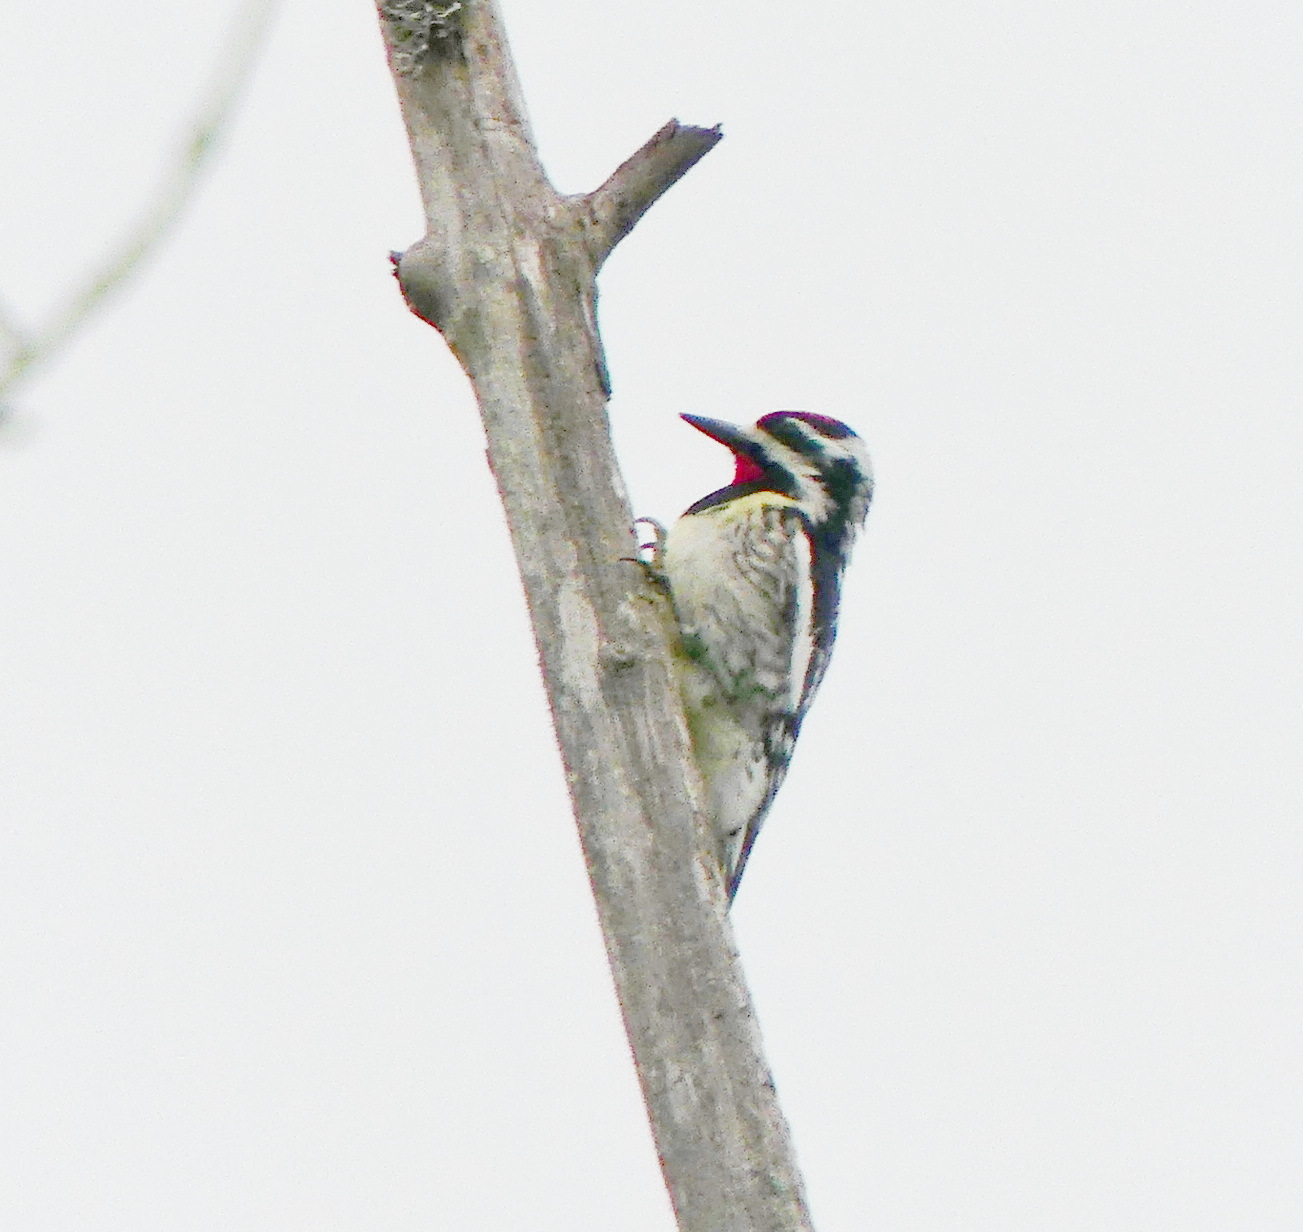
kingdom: Animalia
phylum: Chordata
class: Aves
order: Piciformes
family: Picidae
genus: Sphyrapicus
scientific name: Sphyrapicus varius
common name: Yellow-bellied sapsucker
